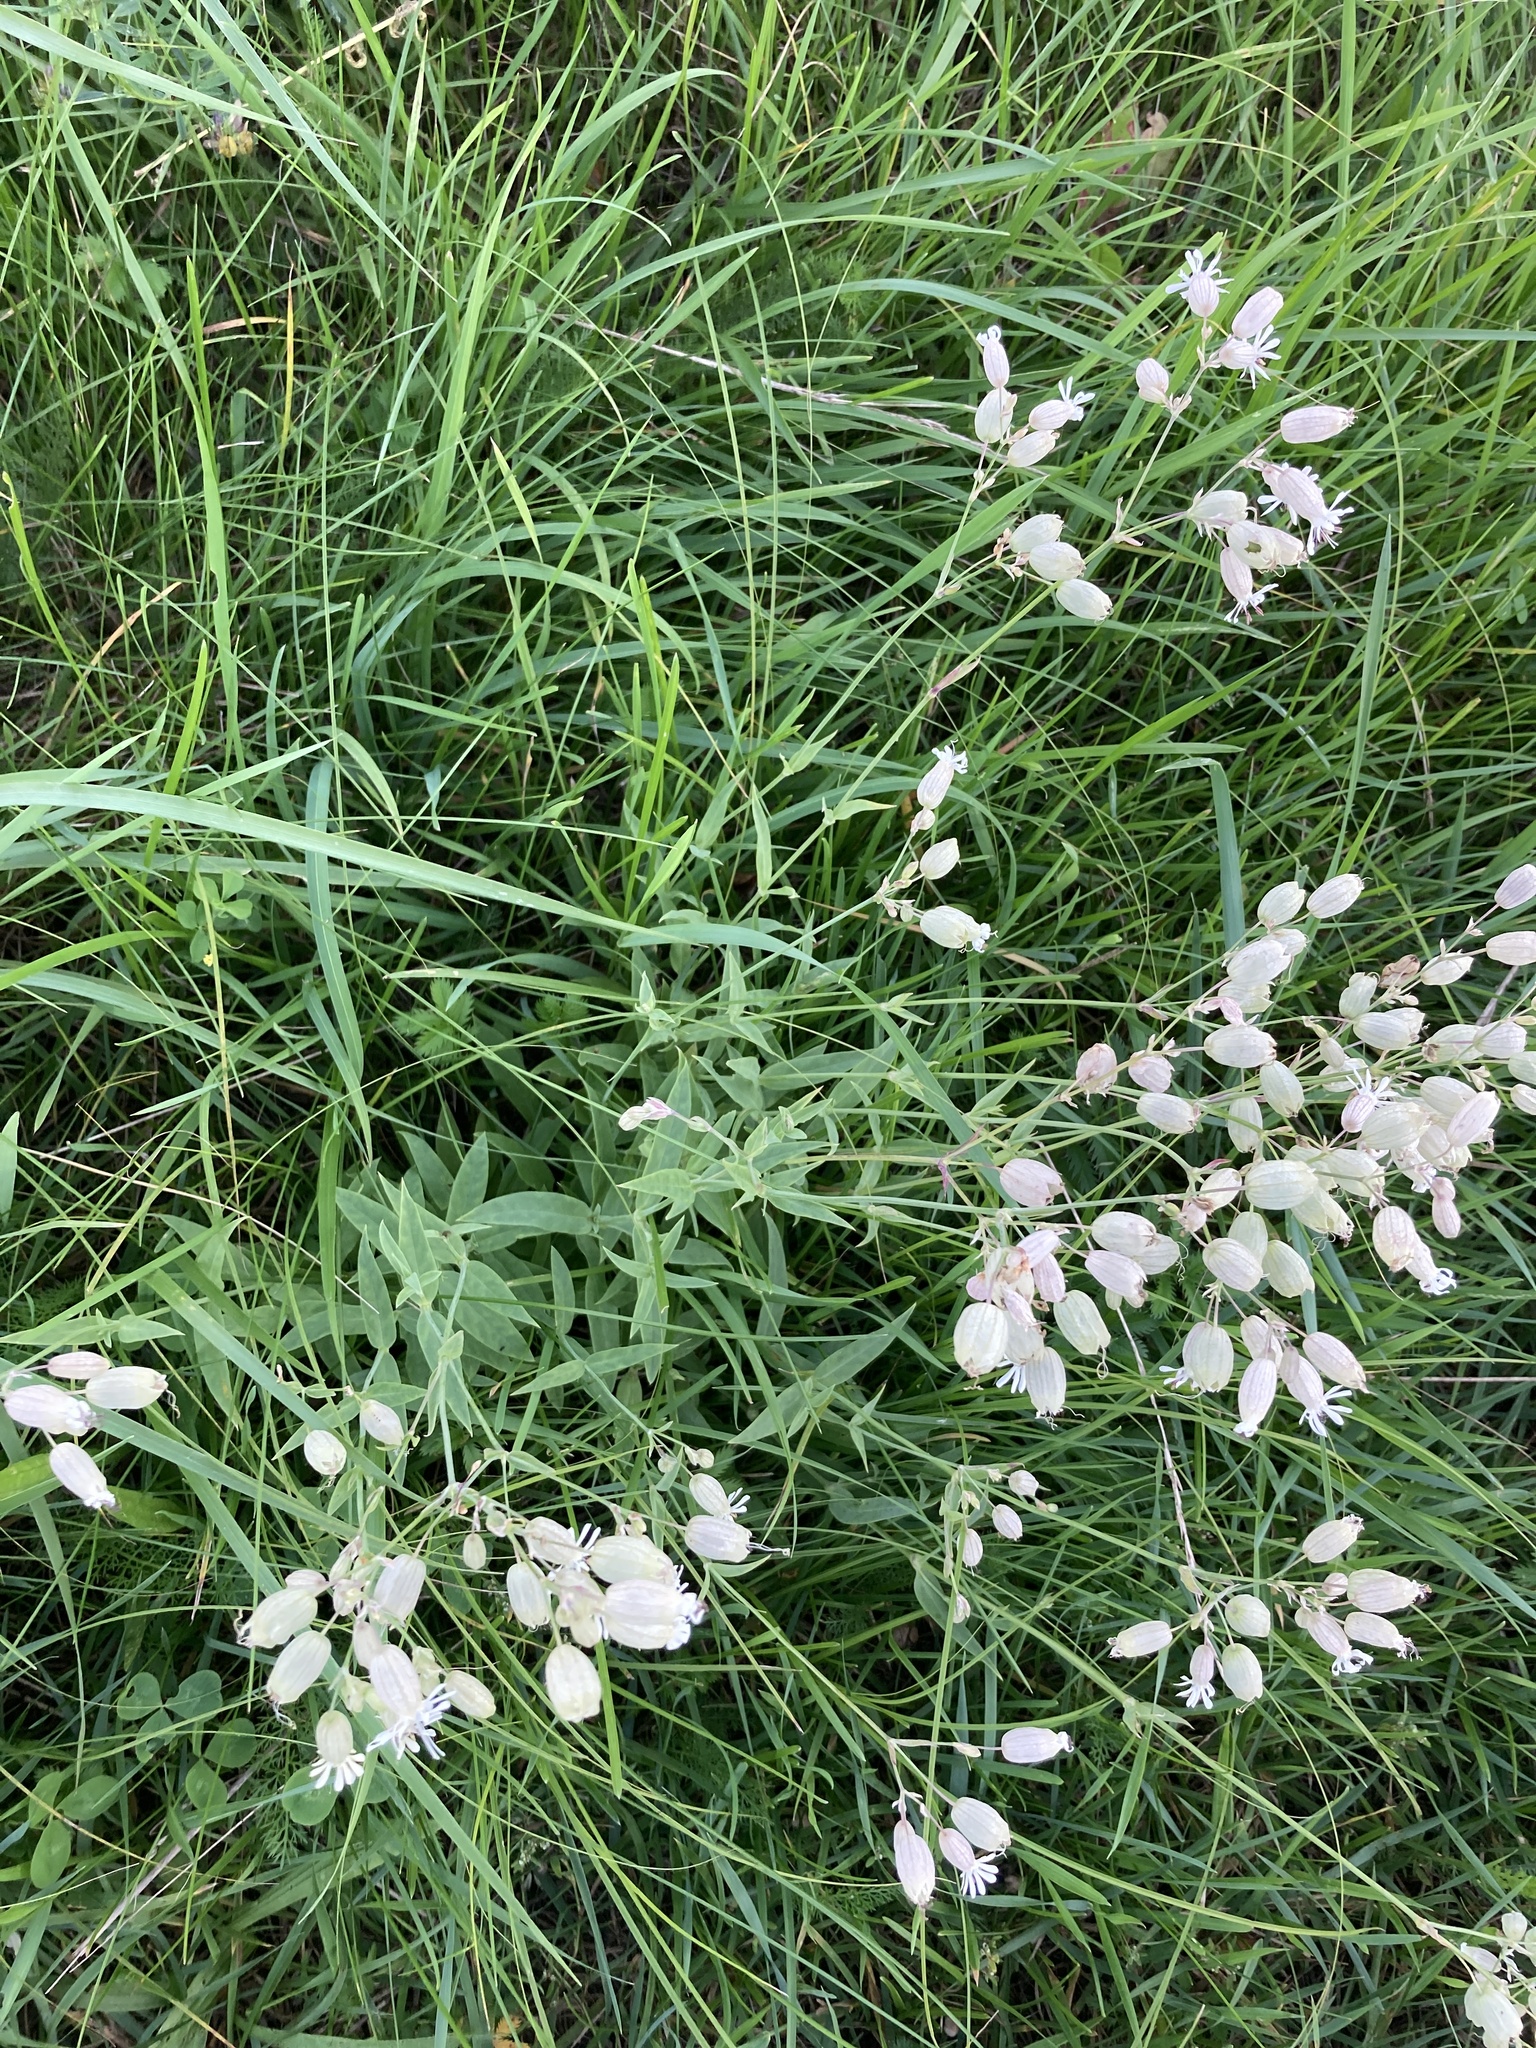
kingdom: Plantae
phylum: Tracheophyta
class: Magnoliopsida
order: Caryophyllales
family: Caryophyllaceae
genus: Silene
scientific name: Silene vulgaris
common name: Bladder campion
